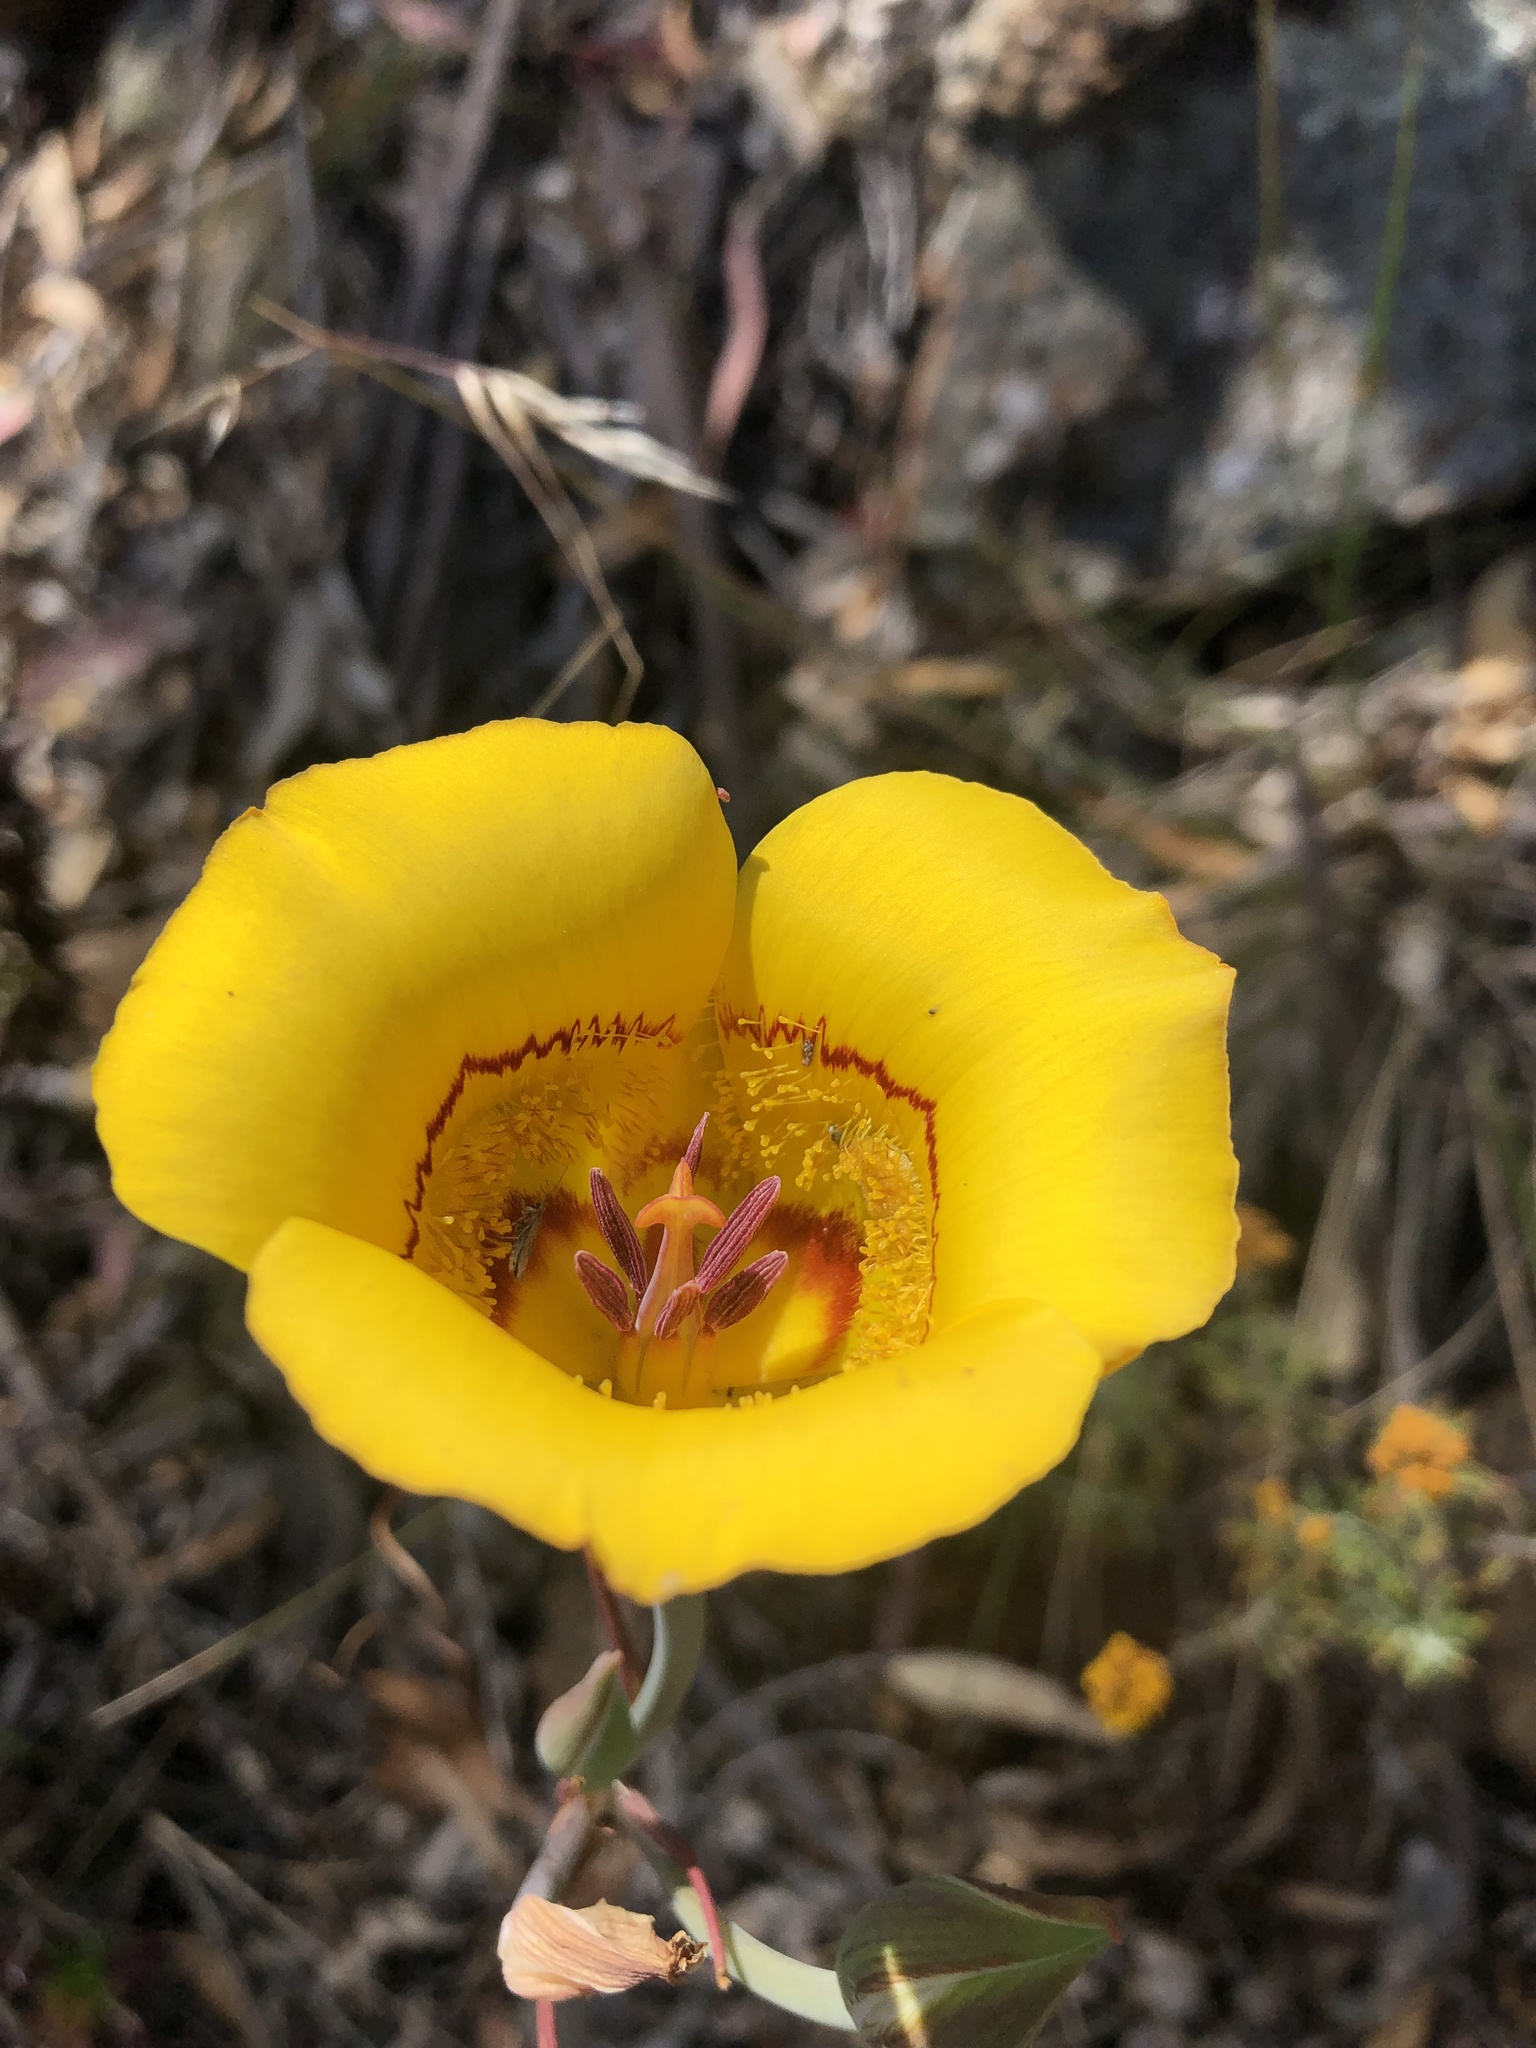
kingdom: Plantae
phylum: Tracheophyta
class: Liliopsida
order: Liliales
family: Liliaceae
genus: Calochortus
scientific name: Calochortus clavatus
